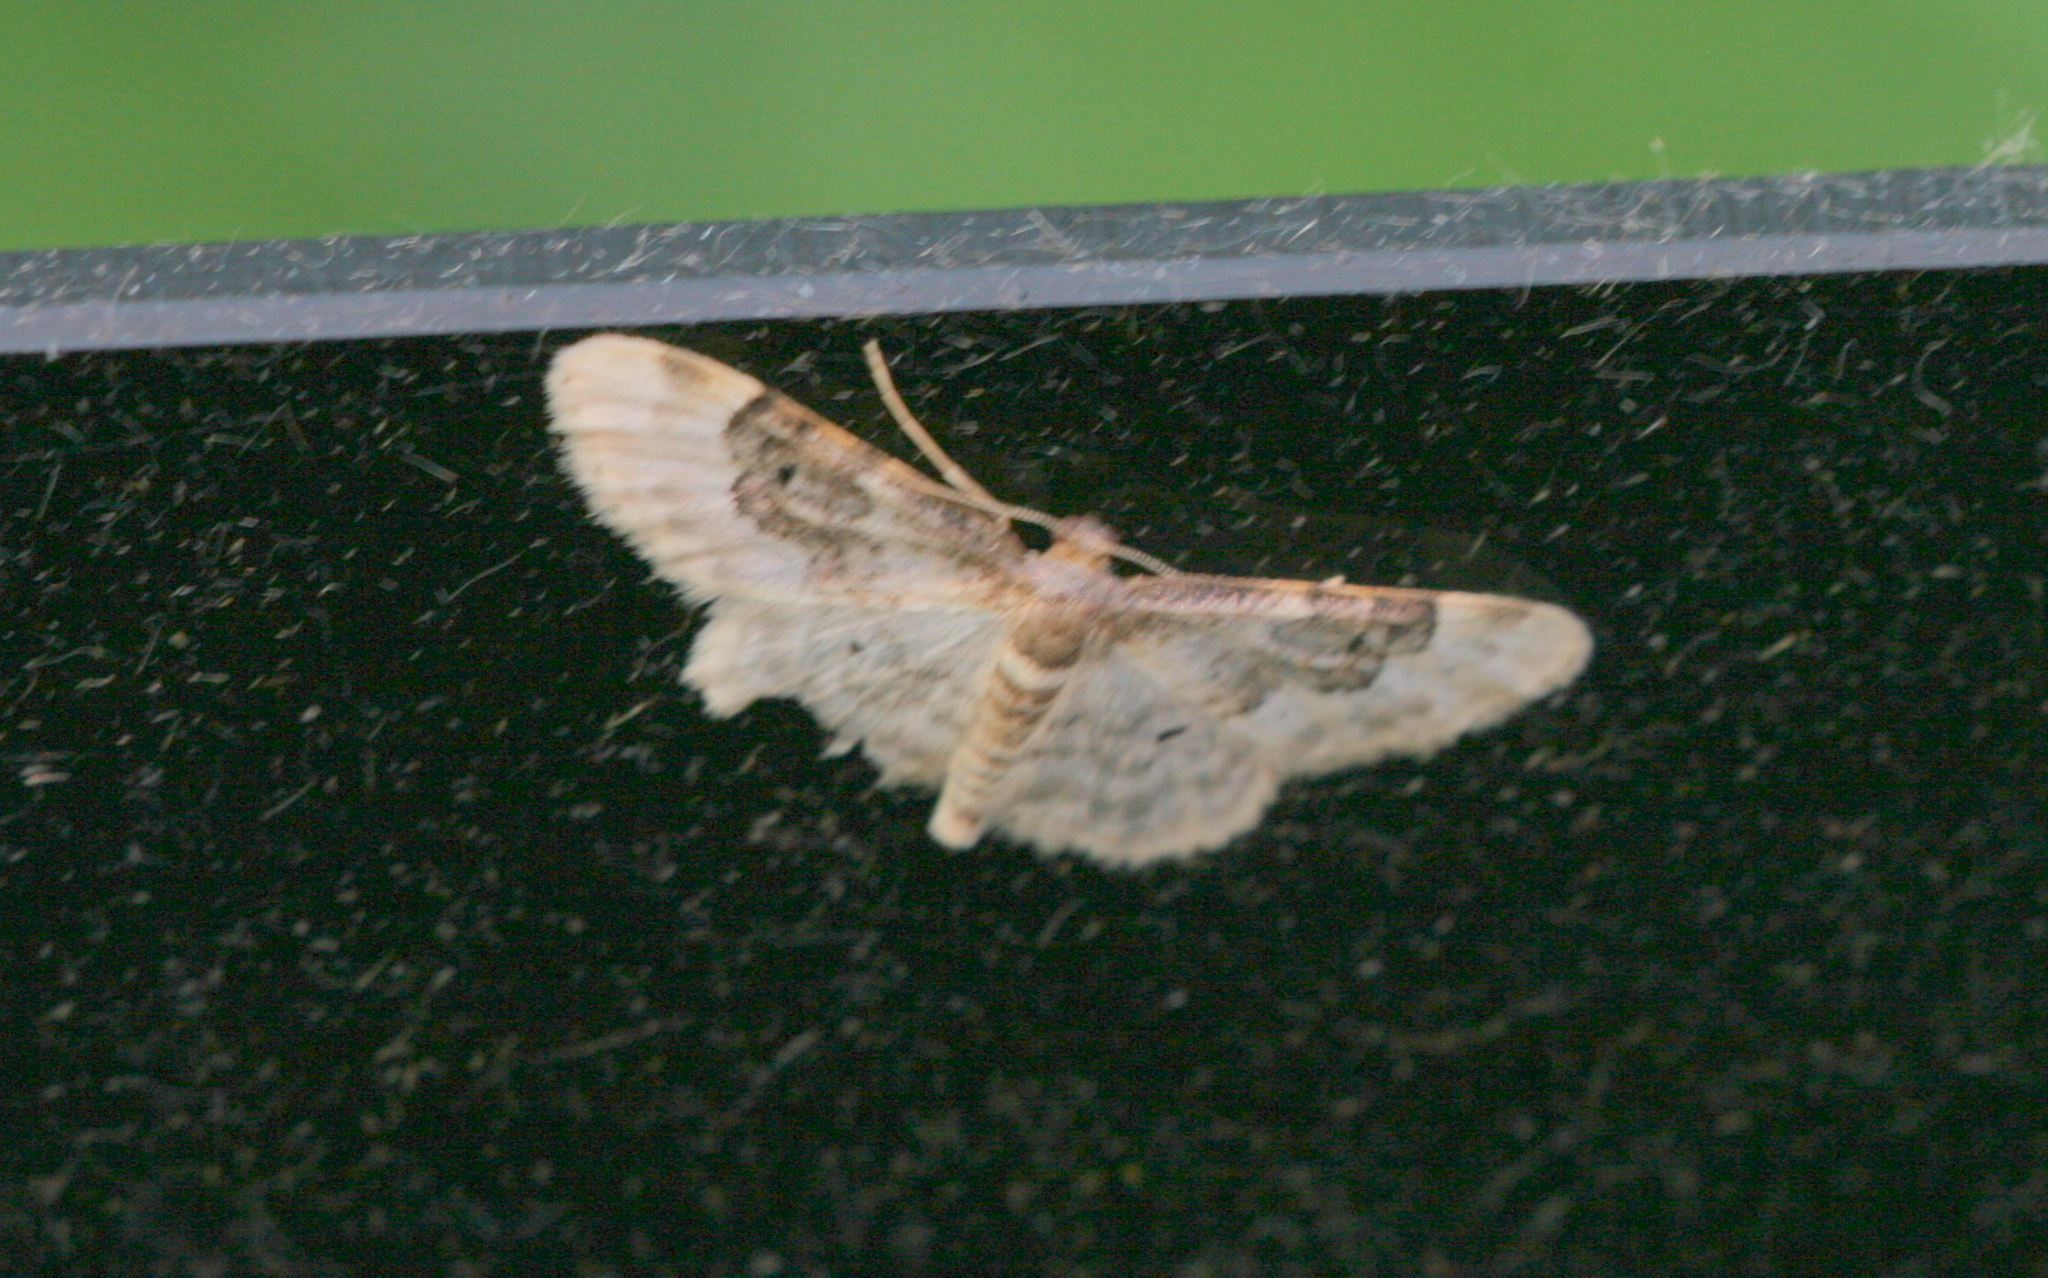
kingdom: Animalia
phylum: Arthropoda
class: Insecta
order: Lepidoptera
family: Geometridae
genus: Idaea
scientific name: Idaea rusticata
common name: Least carpet
